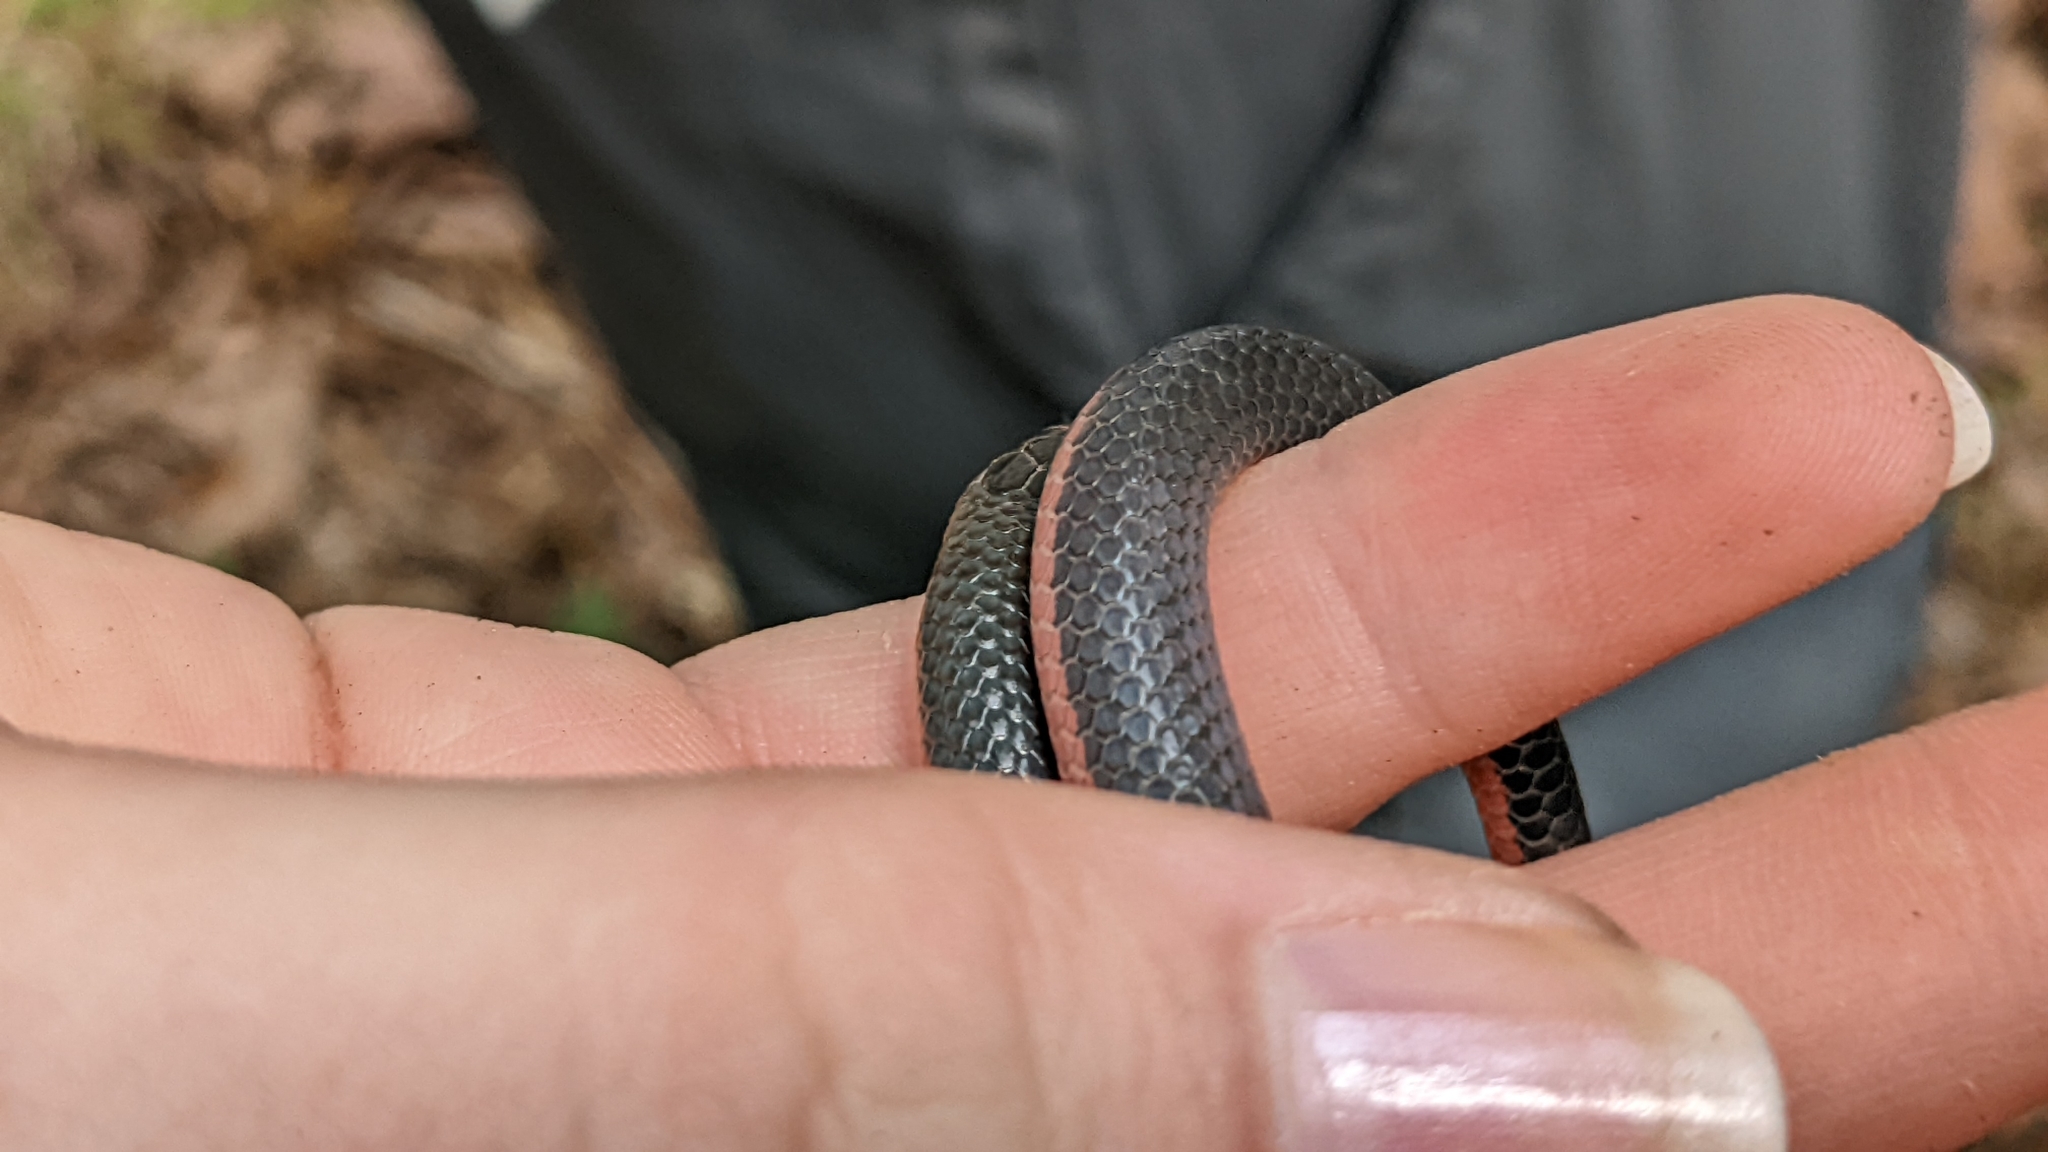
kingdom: Animalia
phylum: Chordata
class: Squamata
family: Colubridae
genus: Carphophis
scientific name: Carphophis vermis
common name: Western worm snake
